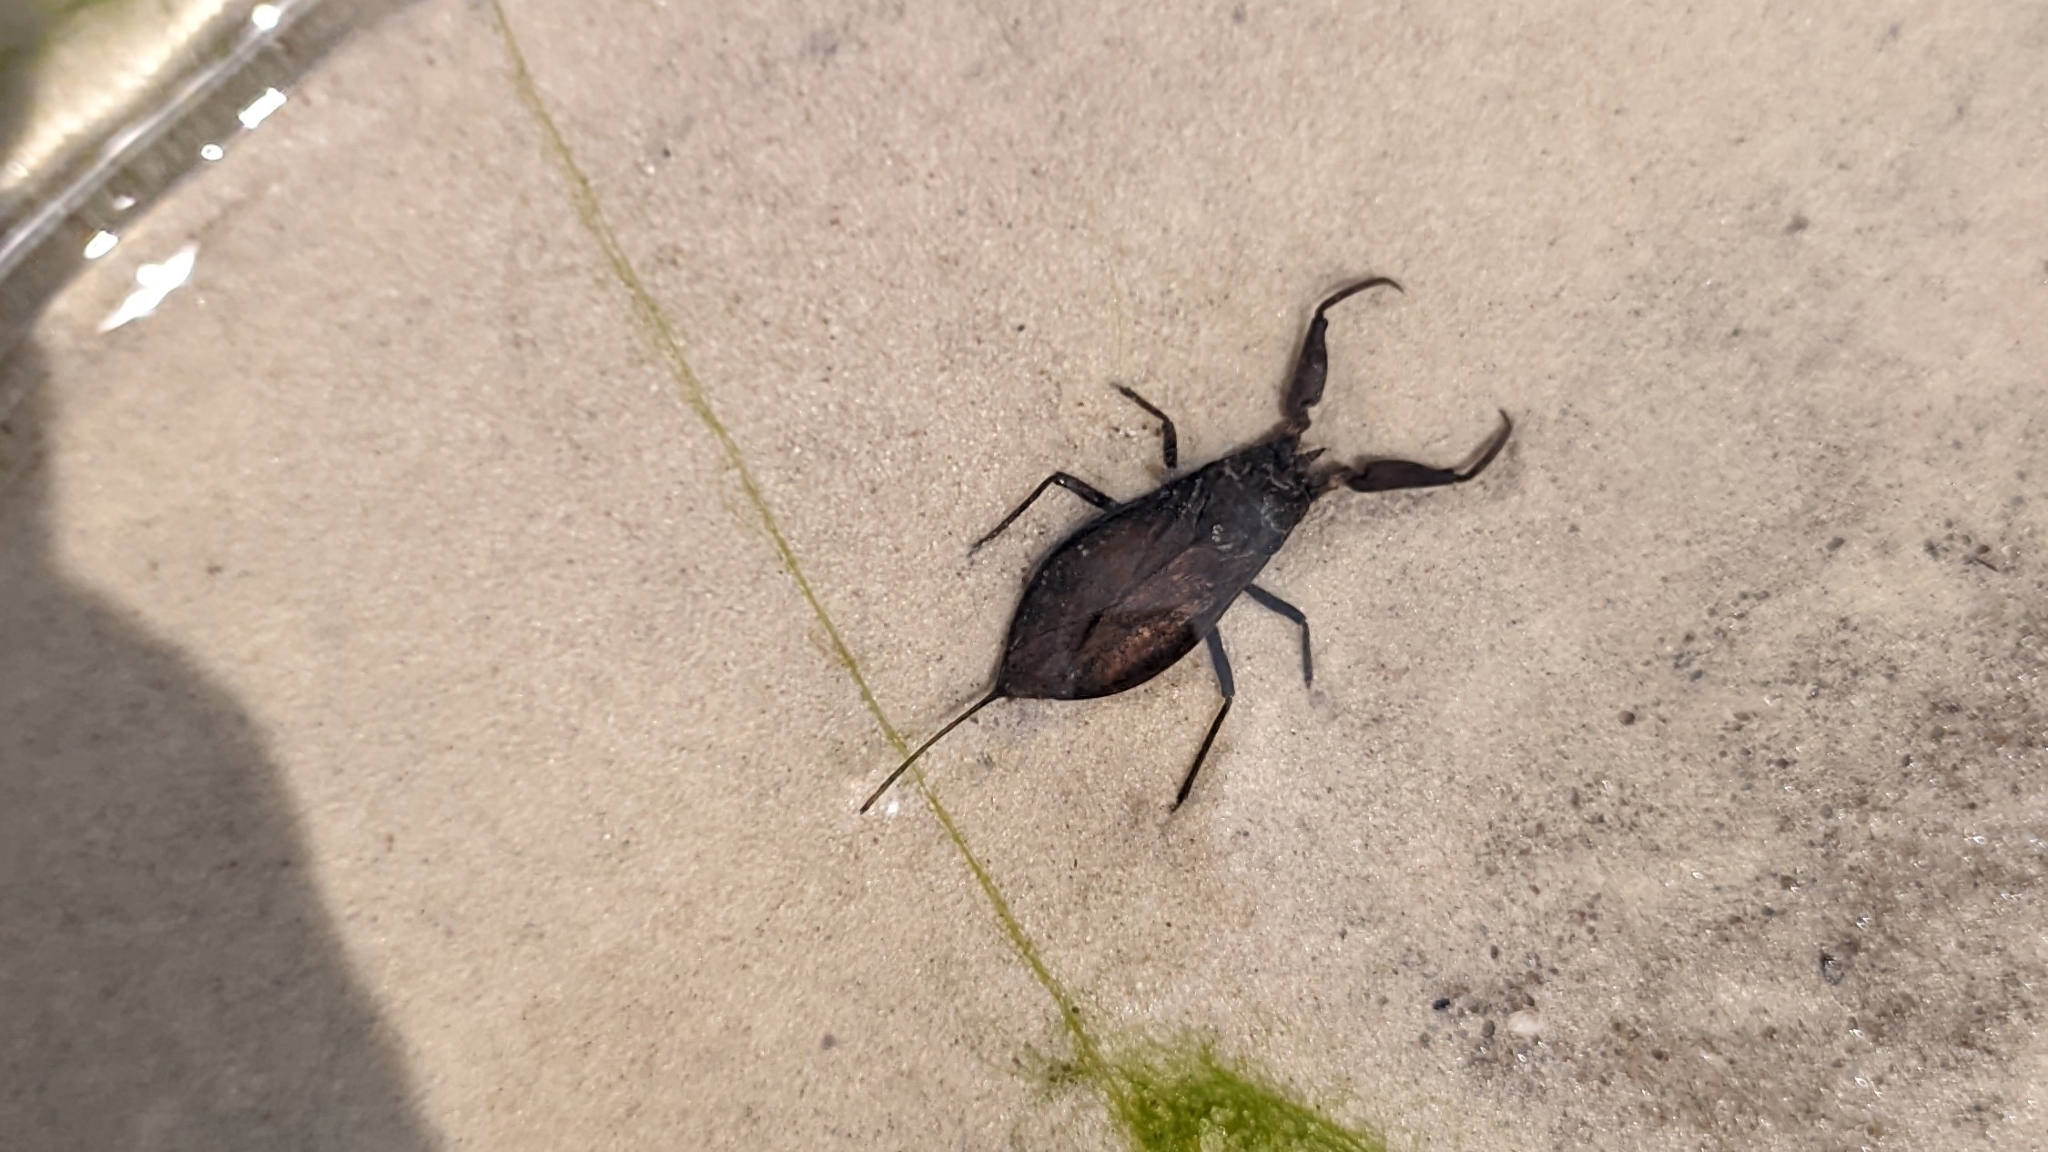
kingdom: Animalia
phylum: Arthropoda
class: Insecta
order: Hemiptera
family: Nepidae
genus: Nepa
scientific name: Nepa cinerea
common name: Water scorpion
